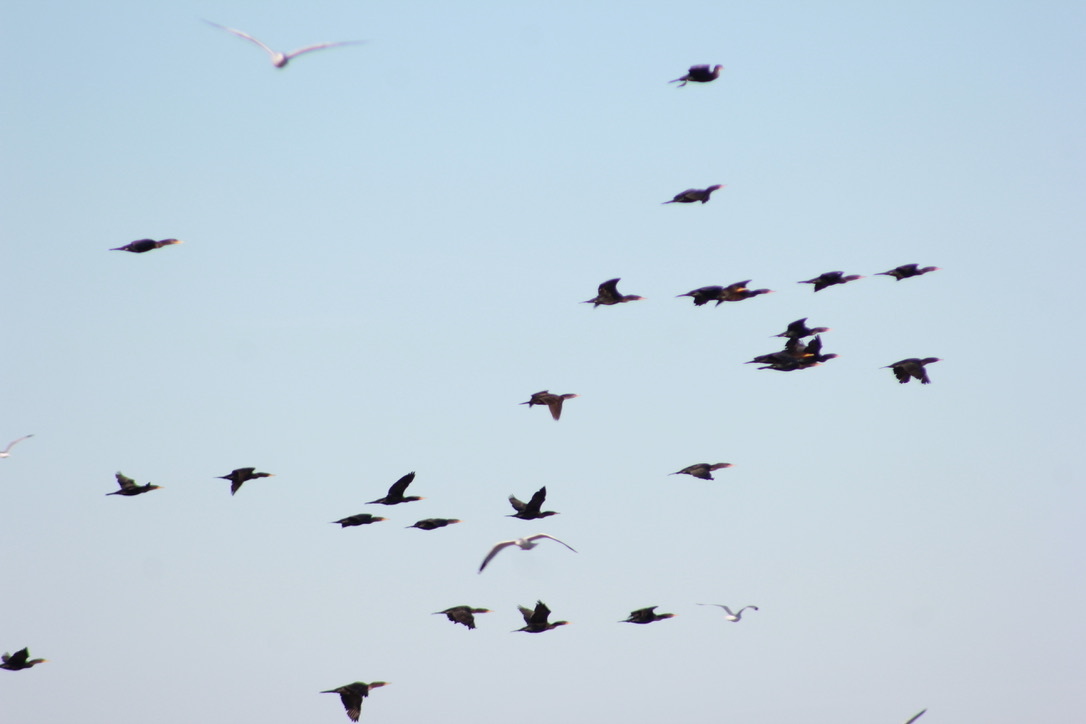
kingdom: Animalia
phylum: Chordata
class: Aves
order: Suliformes
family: Phalacrocoracidae
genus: Phalacrocorax
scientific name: Phalacrocorax auritus
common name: Double-crested cormorant
